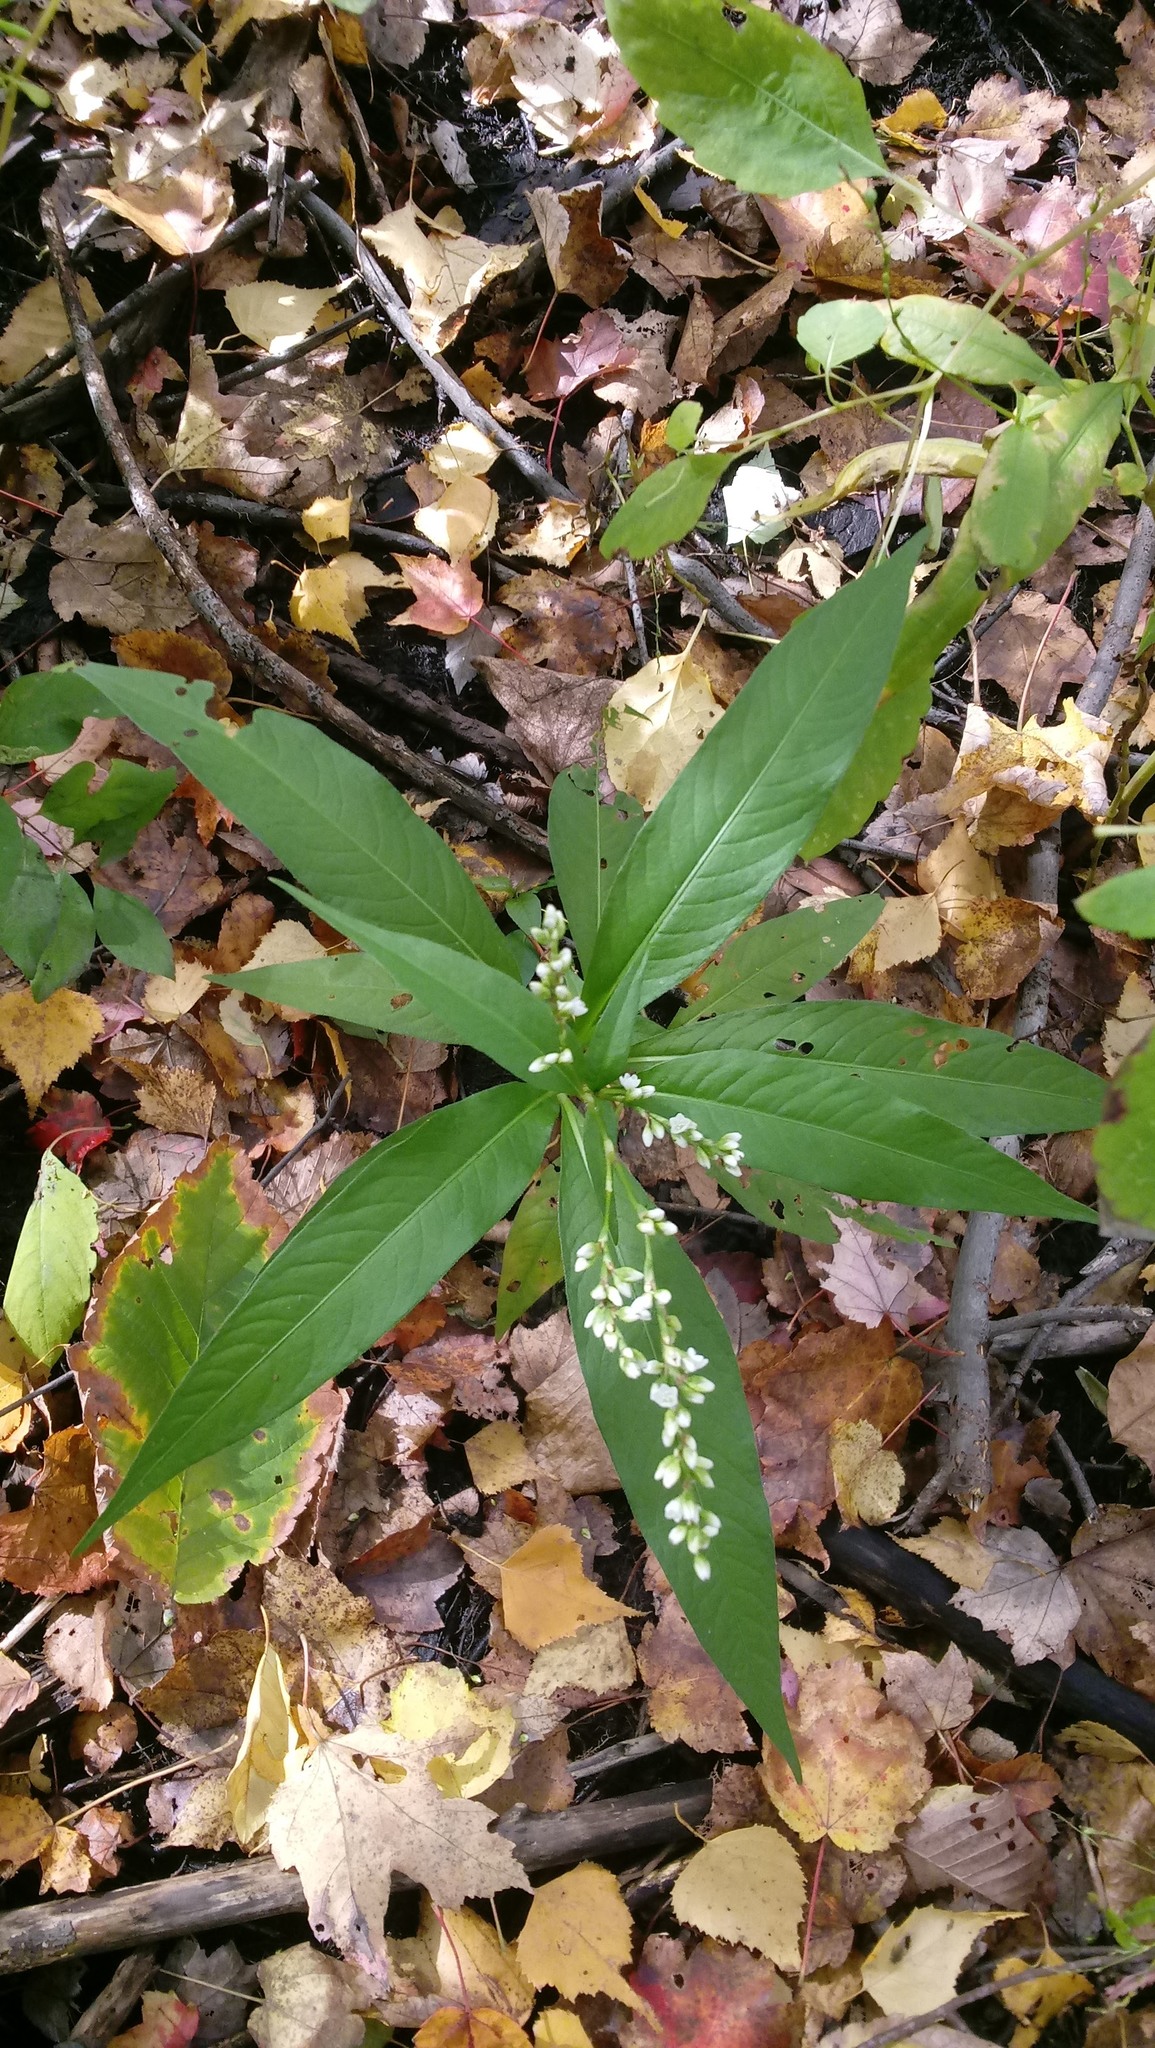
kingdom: Plantae
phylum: Tracheophyta
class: Magnoliopsida
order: Caryophyllales
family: Polygonaceae
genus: Persicaria
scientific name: Persicaria punctata
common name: Dotted smartweed
